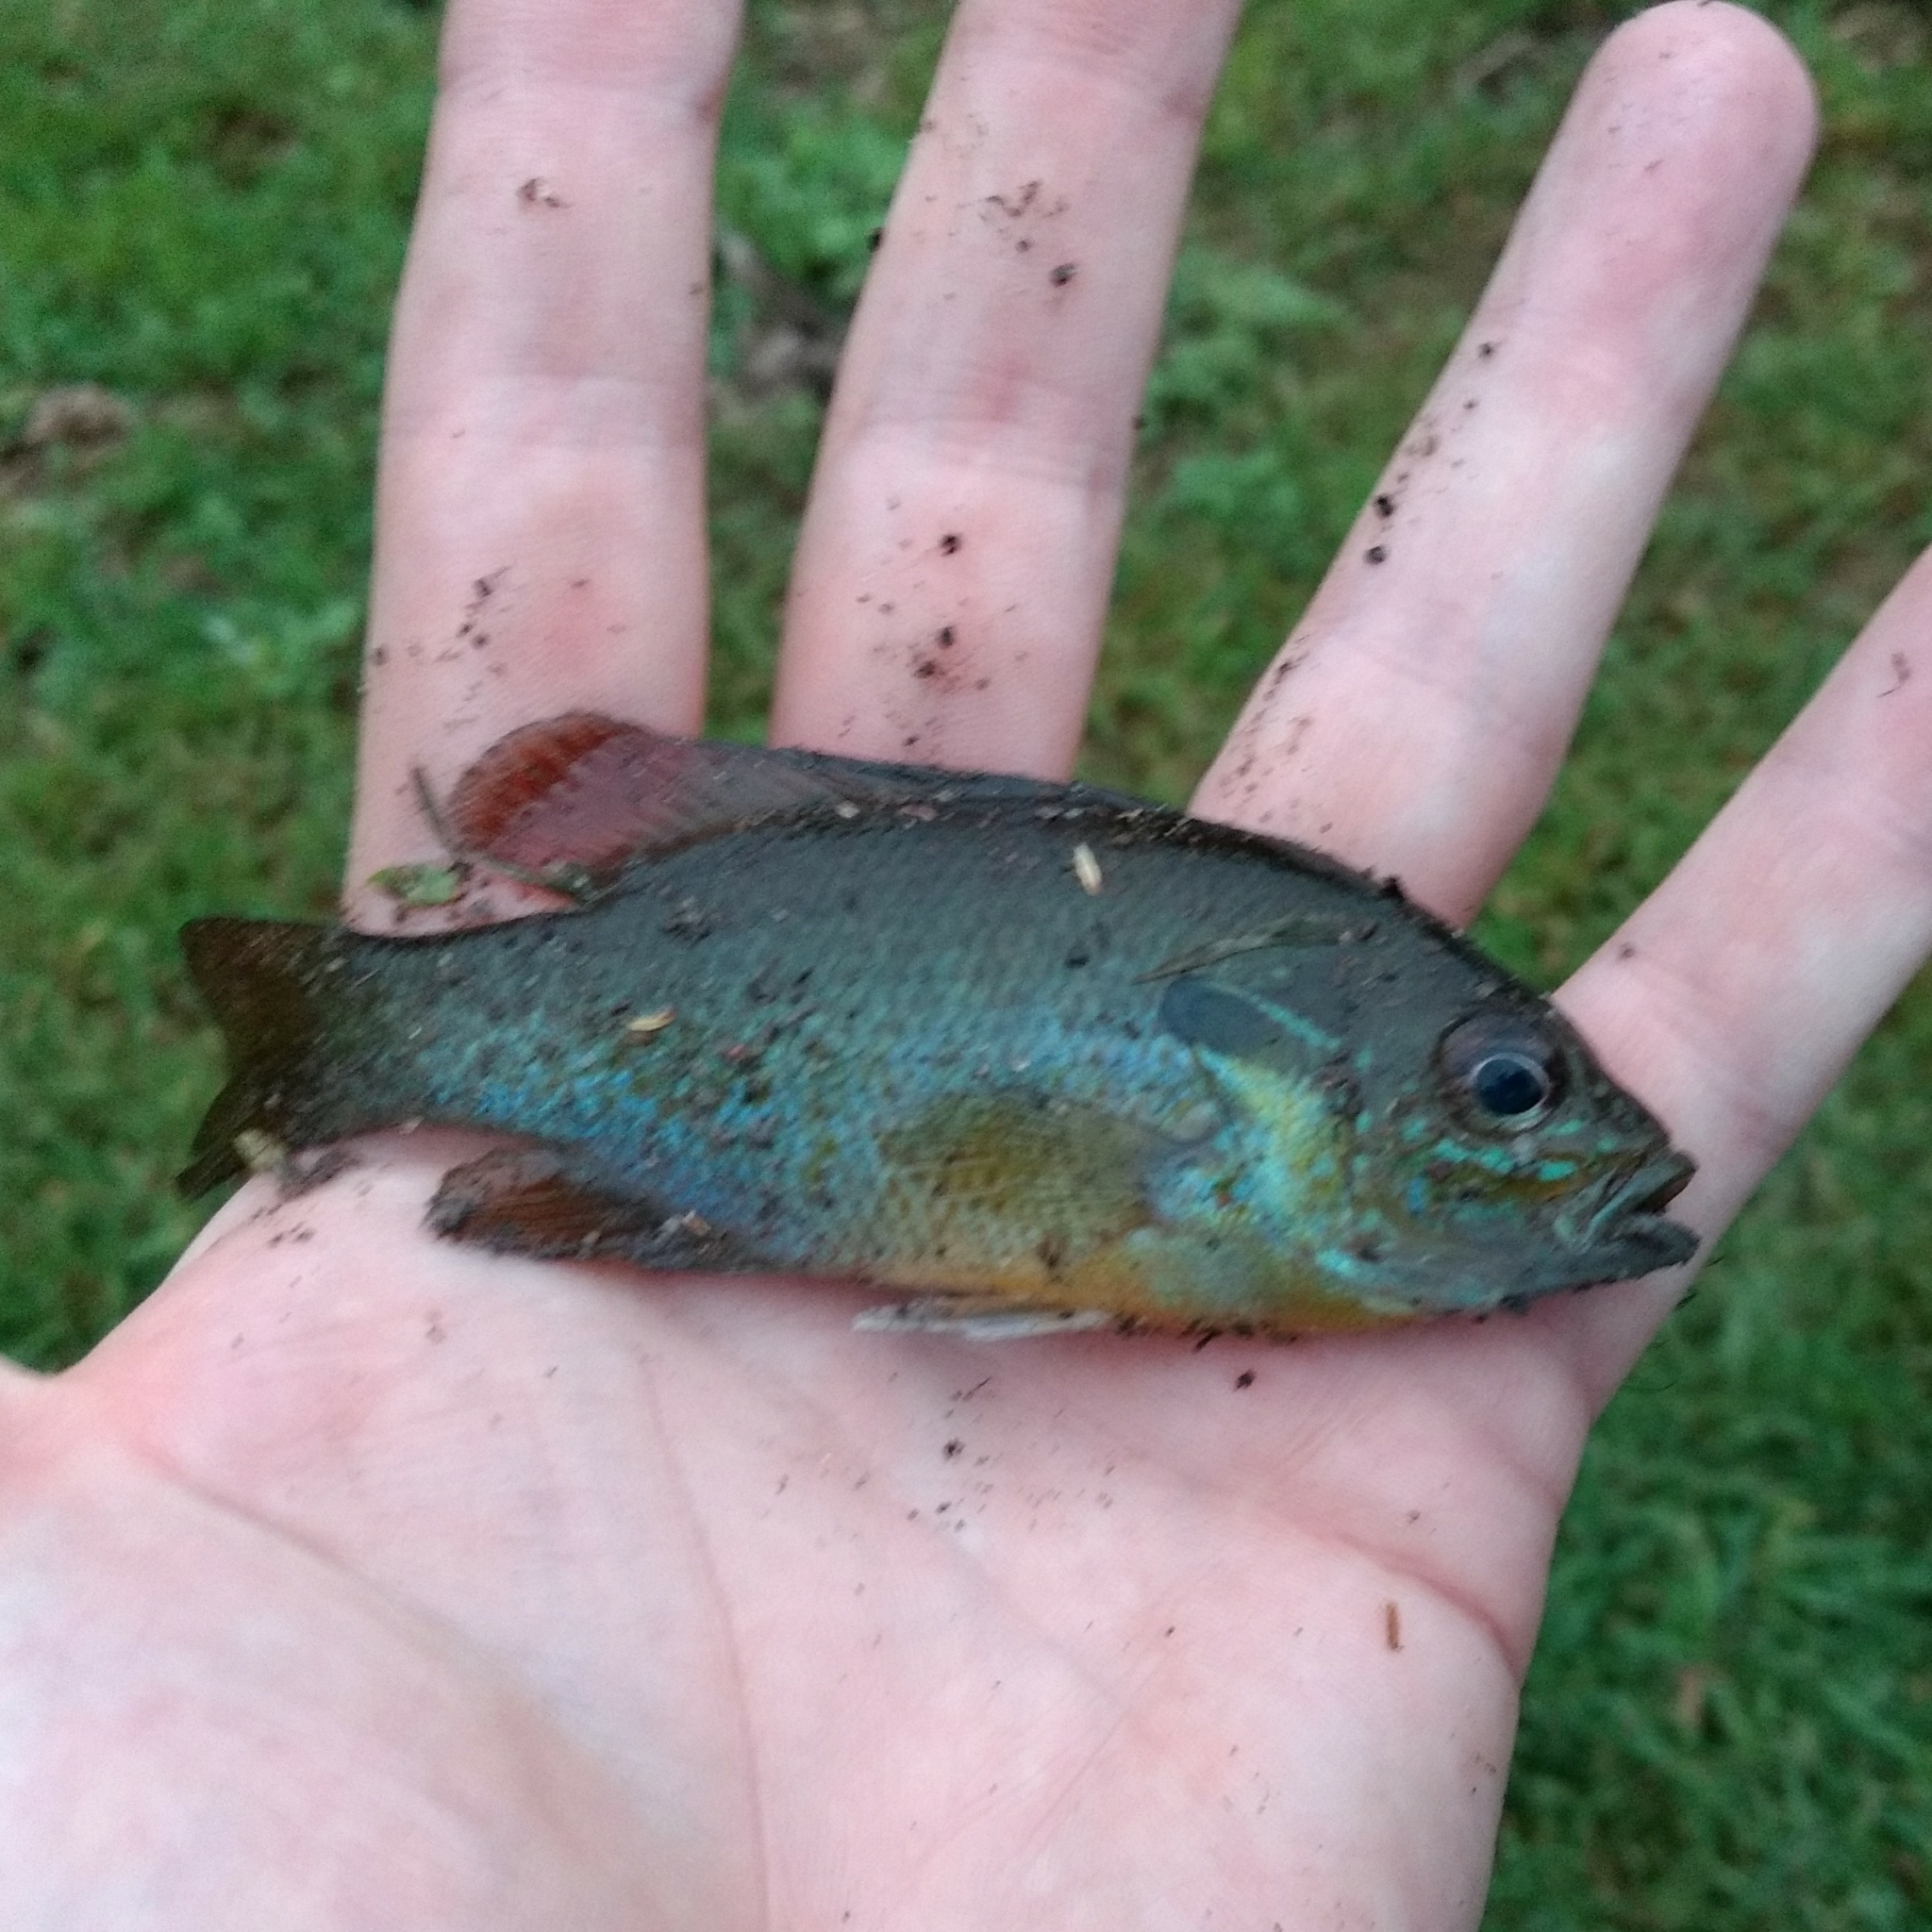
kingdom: Animalia
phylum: Chordata
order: Perciformes
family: Centrarchidae
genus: Lepomis
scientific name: Lepomis auritus
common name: Redbreast sunfish
